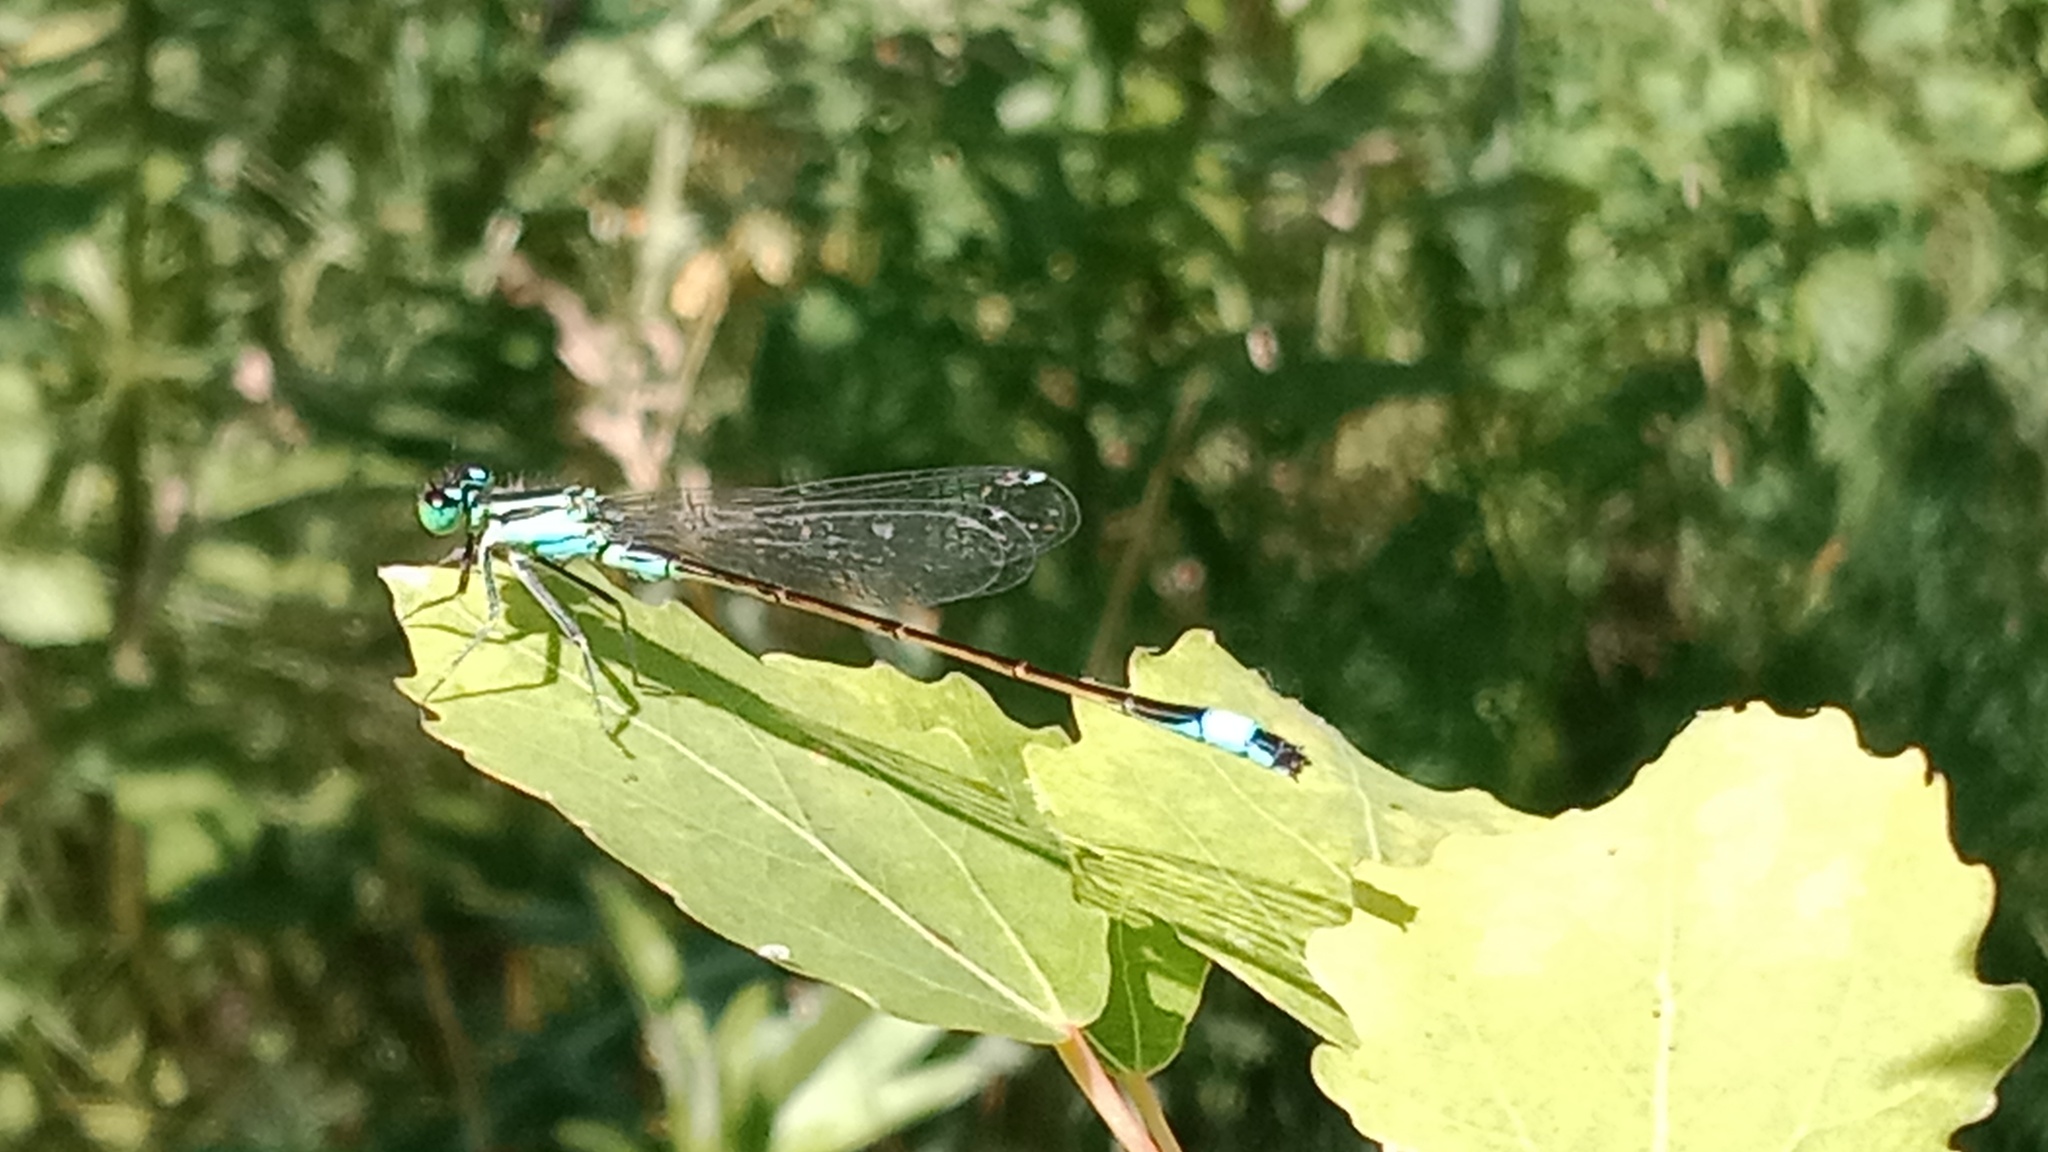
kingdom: Animalia
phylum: Arthropoda
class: Insecta
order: Odonata
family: Coenagrionidae
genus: Ischnura
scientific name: Ischnura elegans
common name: Blue-tailed damselfly
